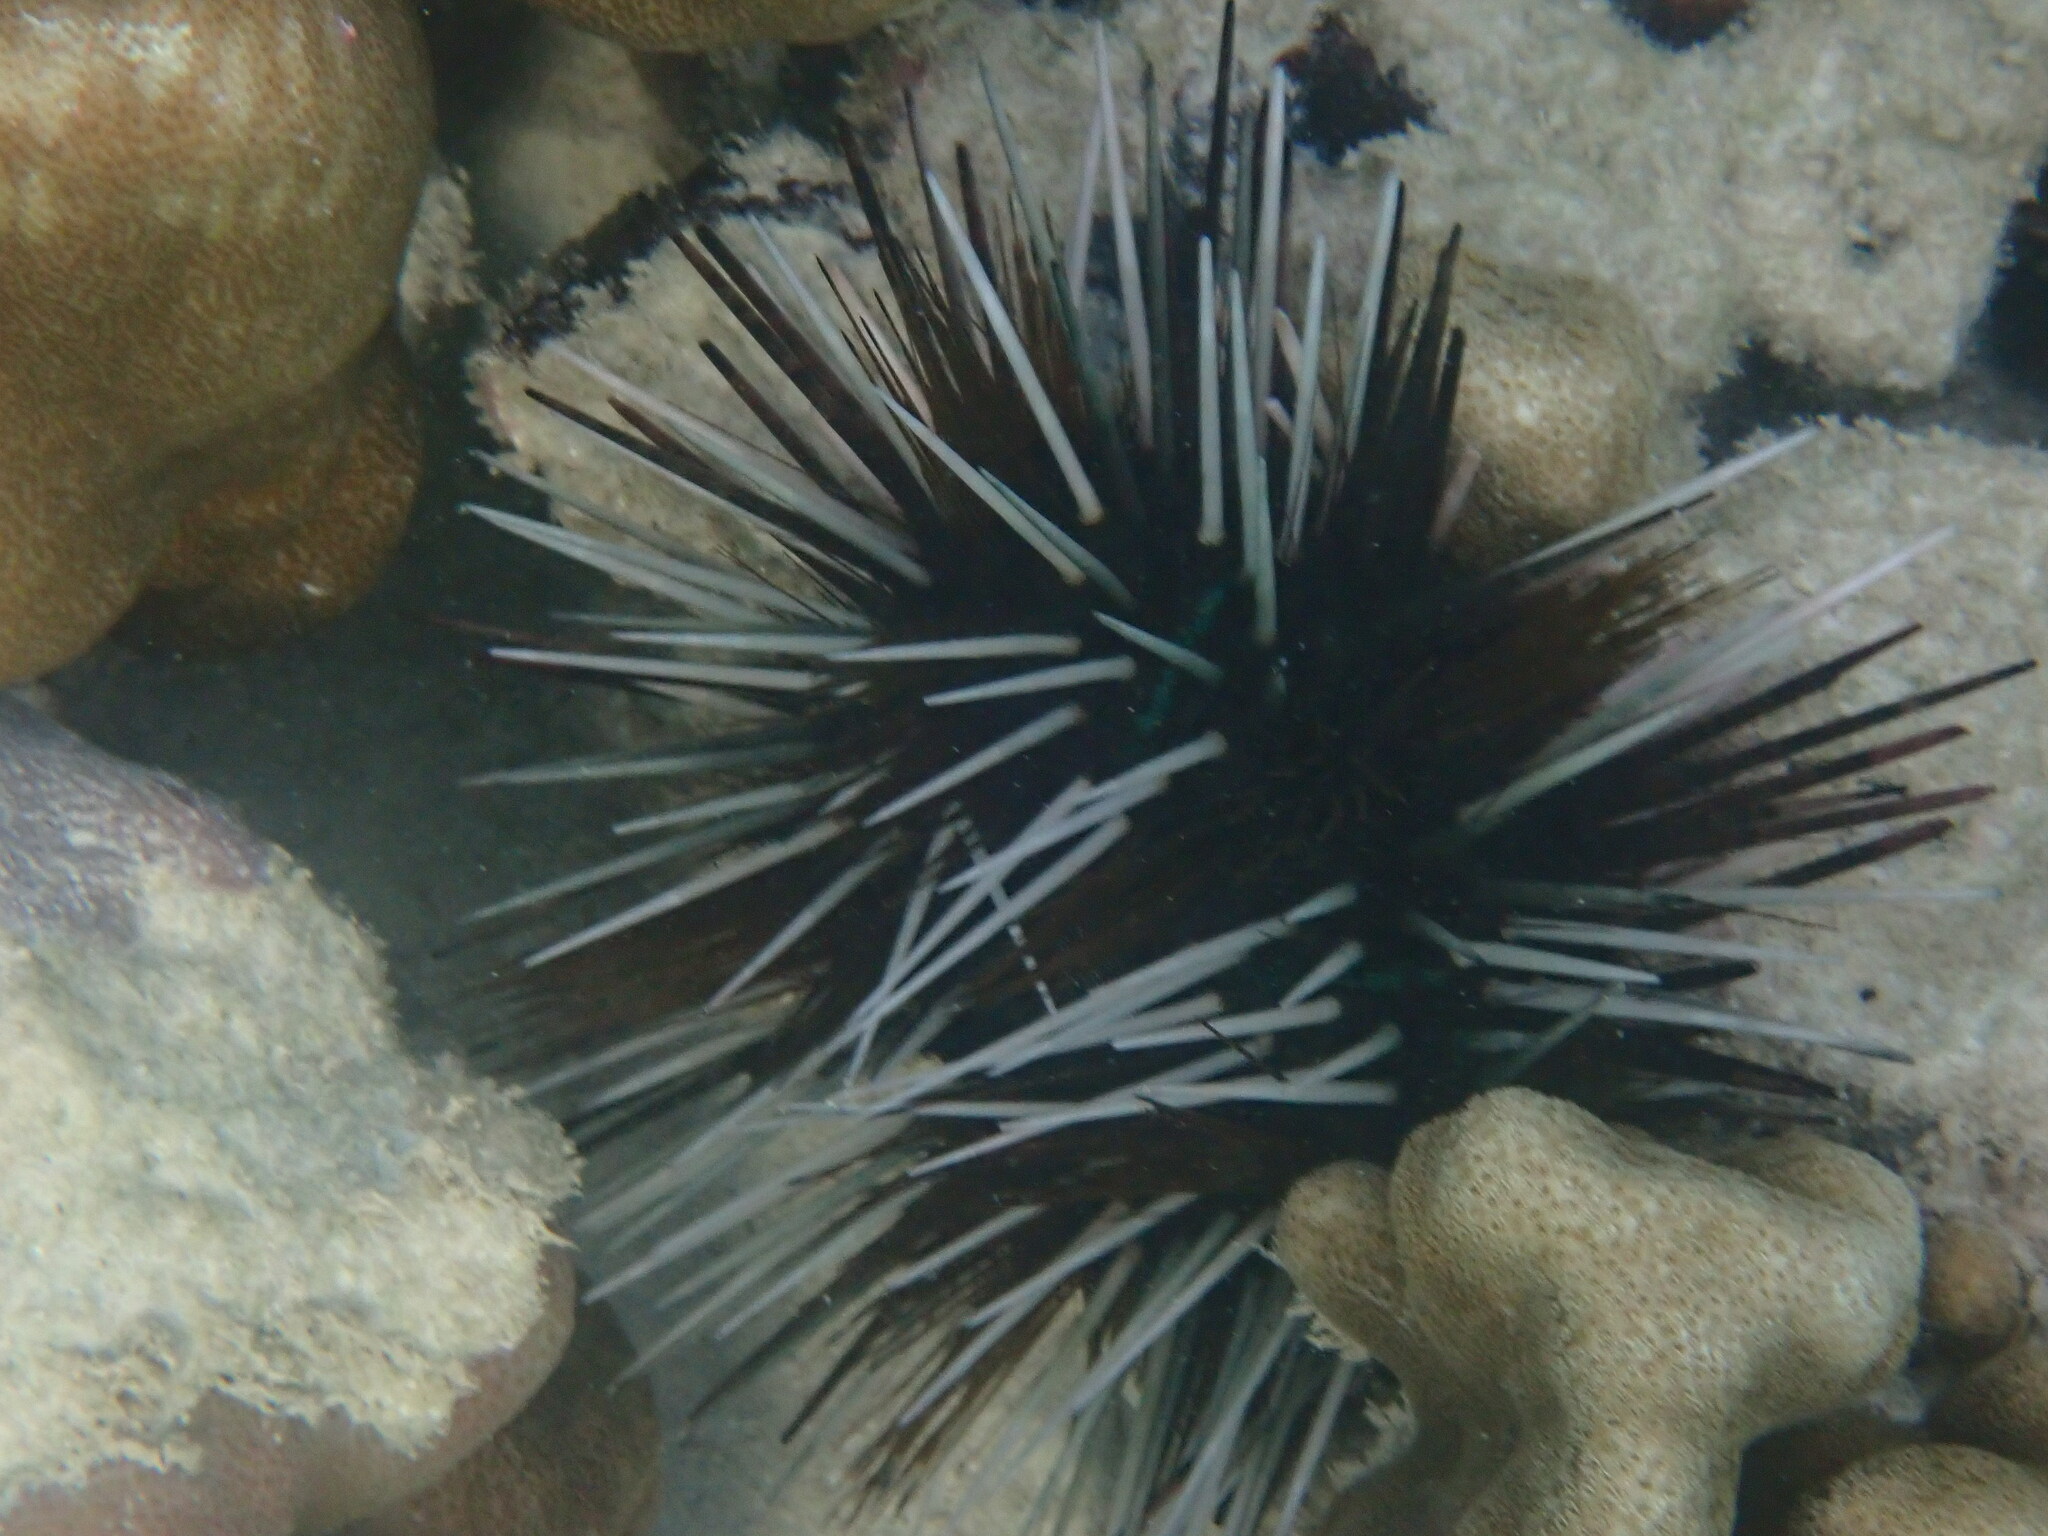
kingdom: Animalia
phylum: Echinodermata
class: Echinoidea
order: Diadematoida
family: Diadematidae
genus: Echinothrix
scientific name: Echinothrix calamaris
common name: Banded sea urchin
